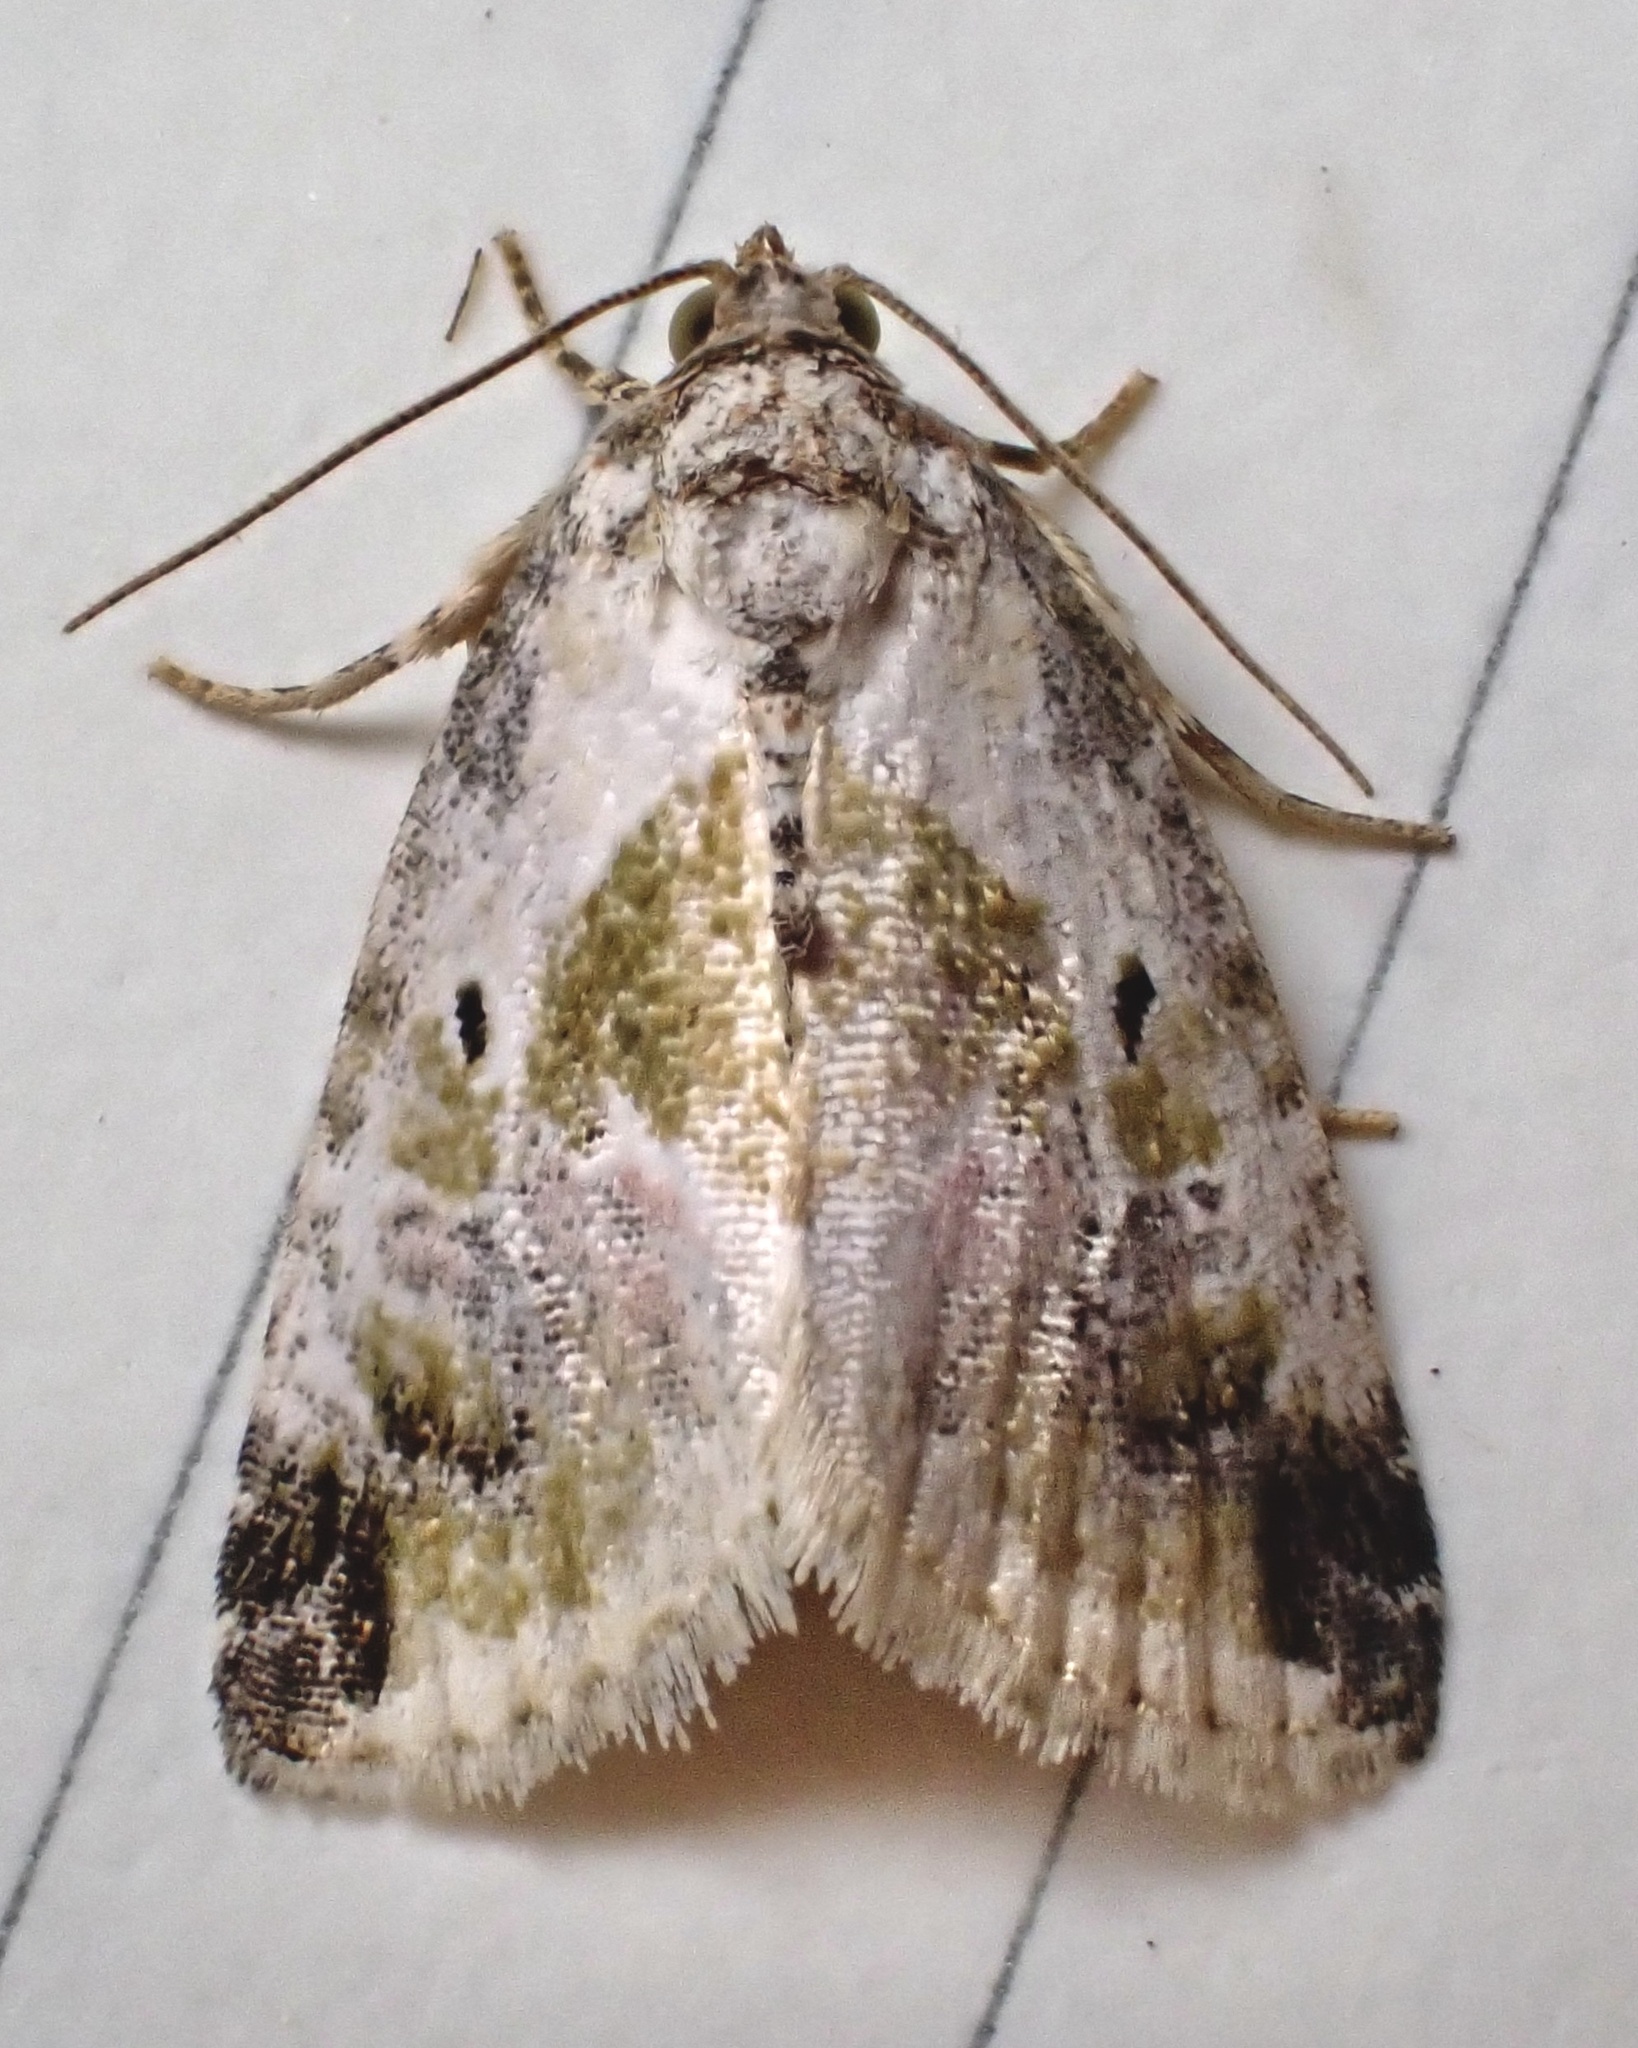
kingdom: Animalia
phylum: Arthropoda
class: Insecta
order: Lepidoptera
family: Noctuidae
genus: Maliattha
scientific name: Maliattha synochitis
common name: Black-dotted glyph
